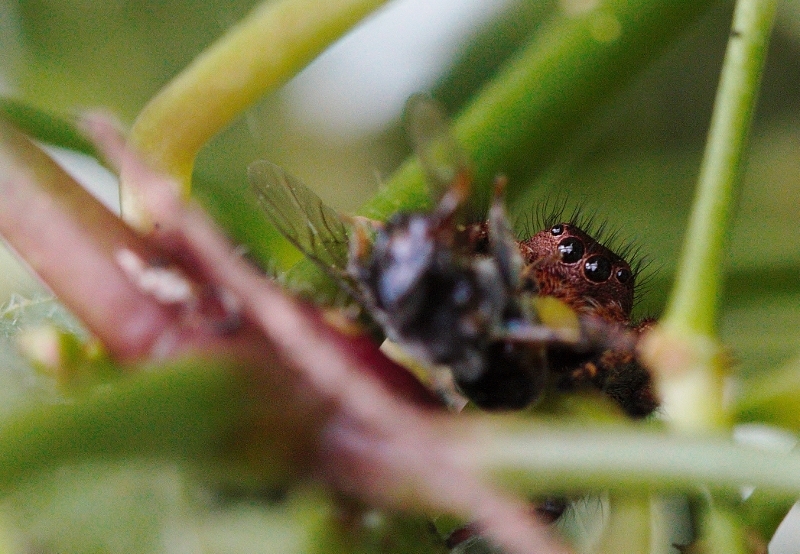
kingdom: Animalia
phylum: Arthropoda
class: Arachnida
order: Araneae
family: Salticidae
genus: Baryphas
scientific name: Baryphas ahenus
